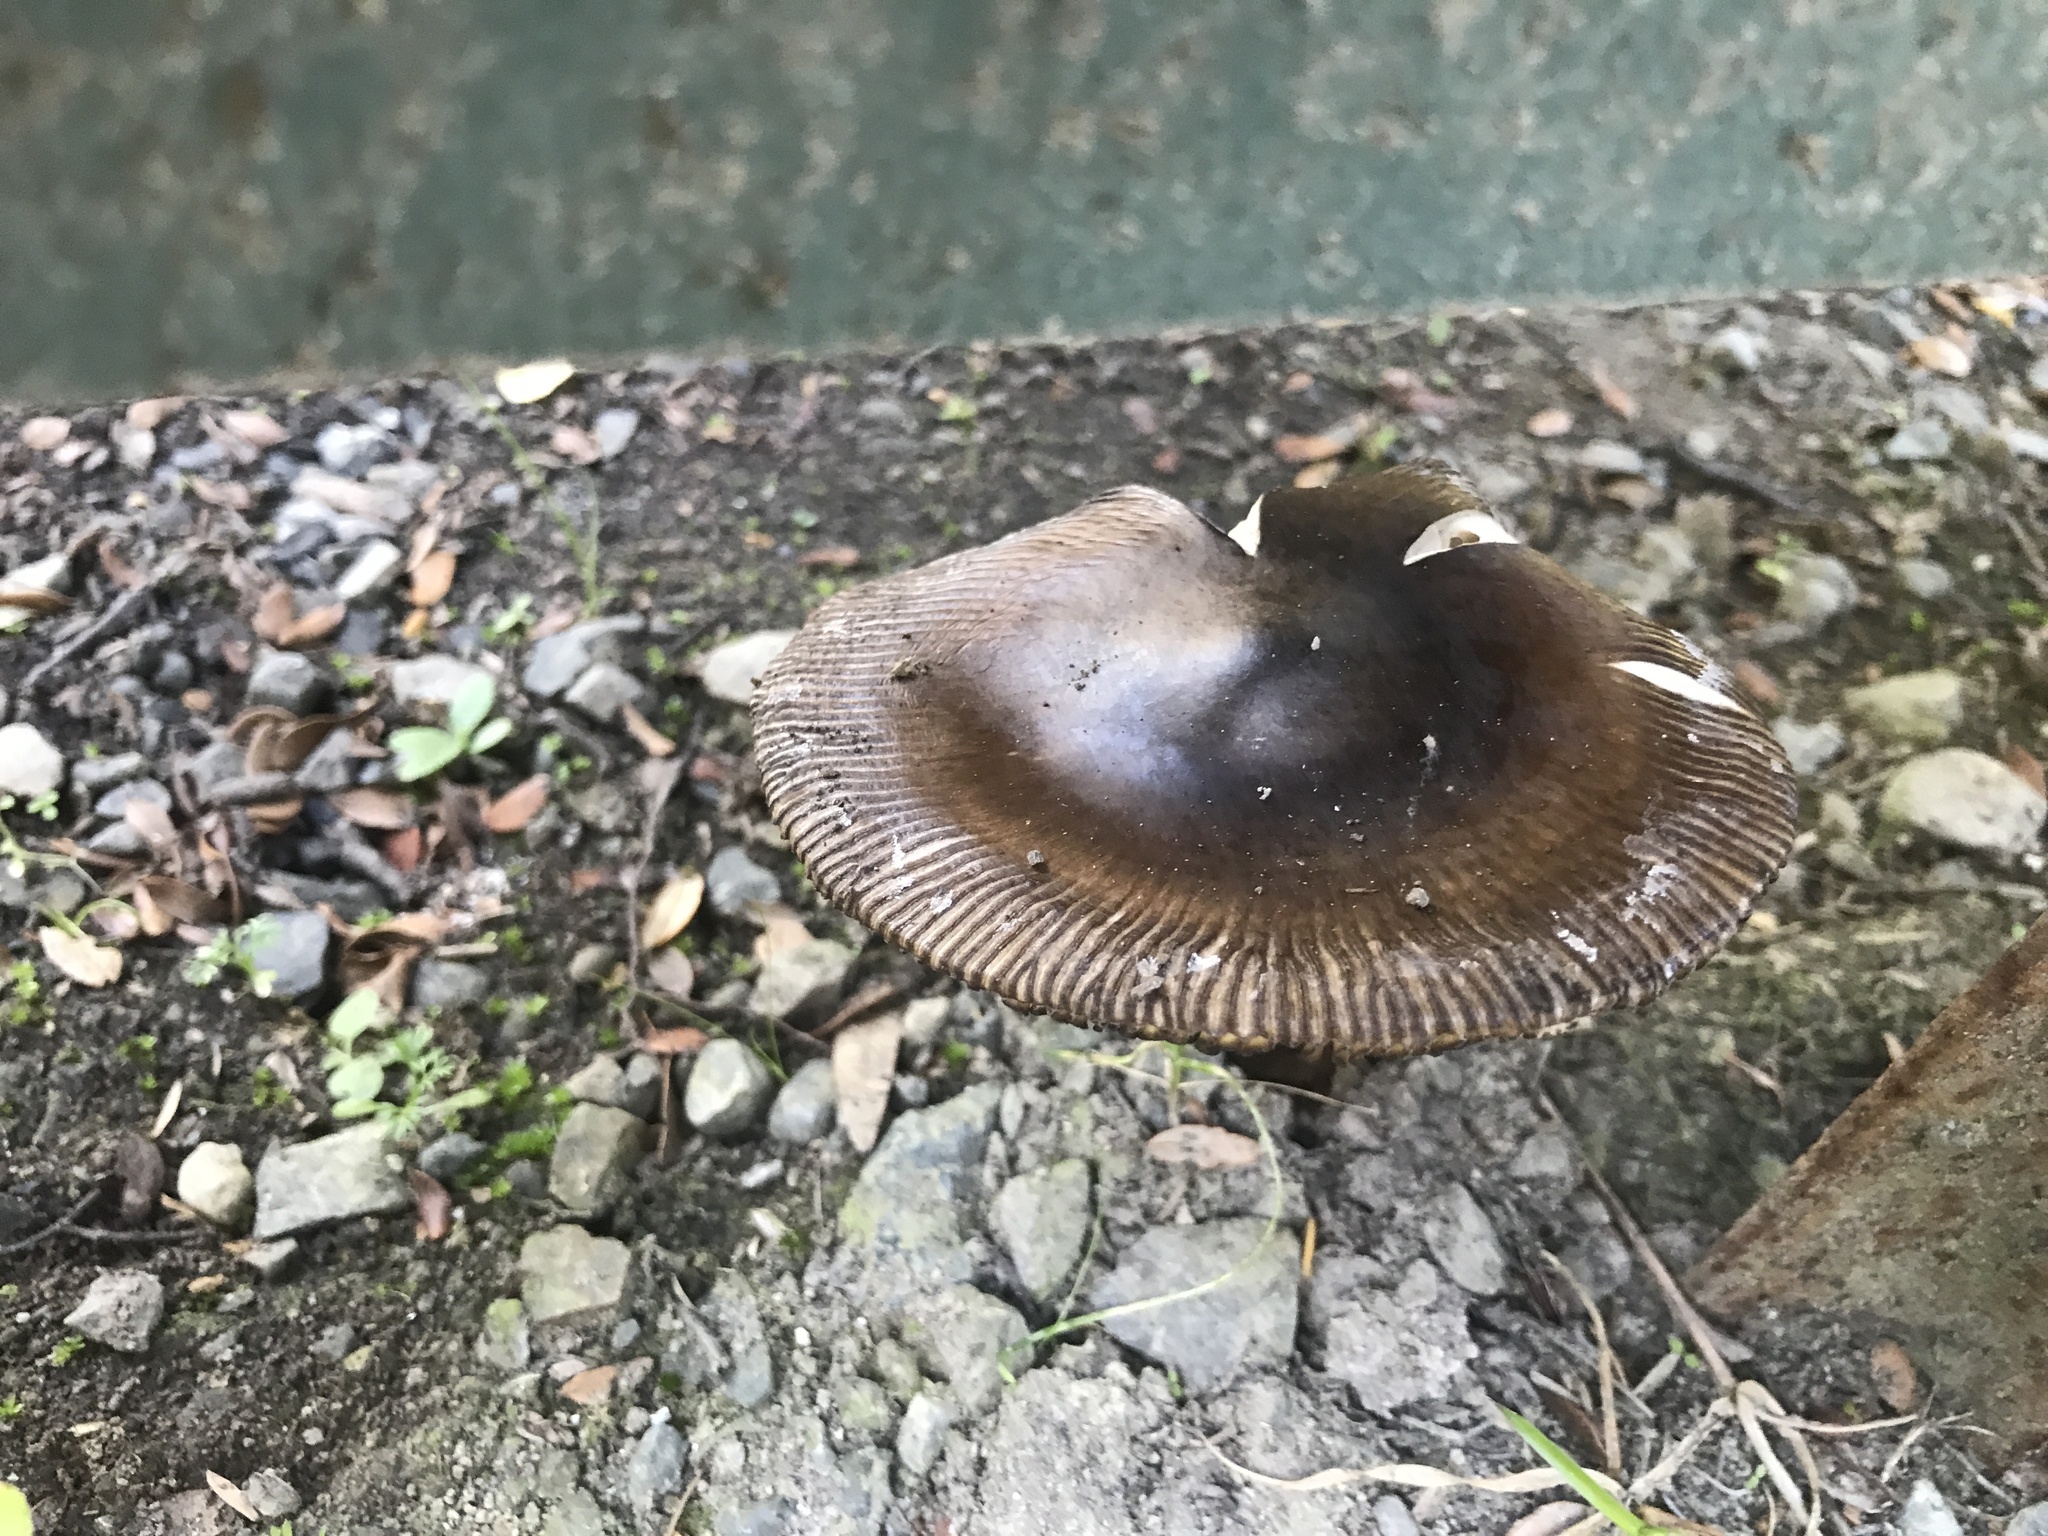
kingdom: Fungi
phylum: Basidiomycota
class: Agaricomycetes
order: Agaricales
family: Amanitaceae
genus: Amanita
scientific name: Amanita pekeoides
